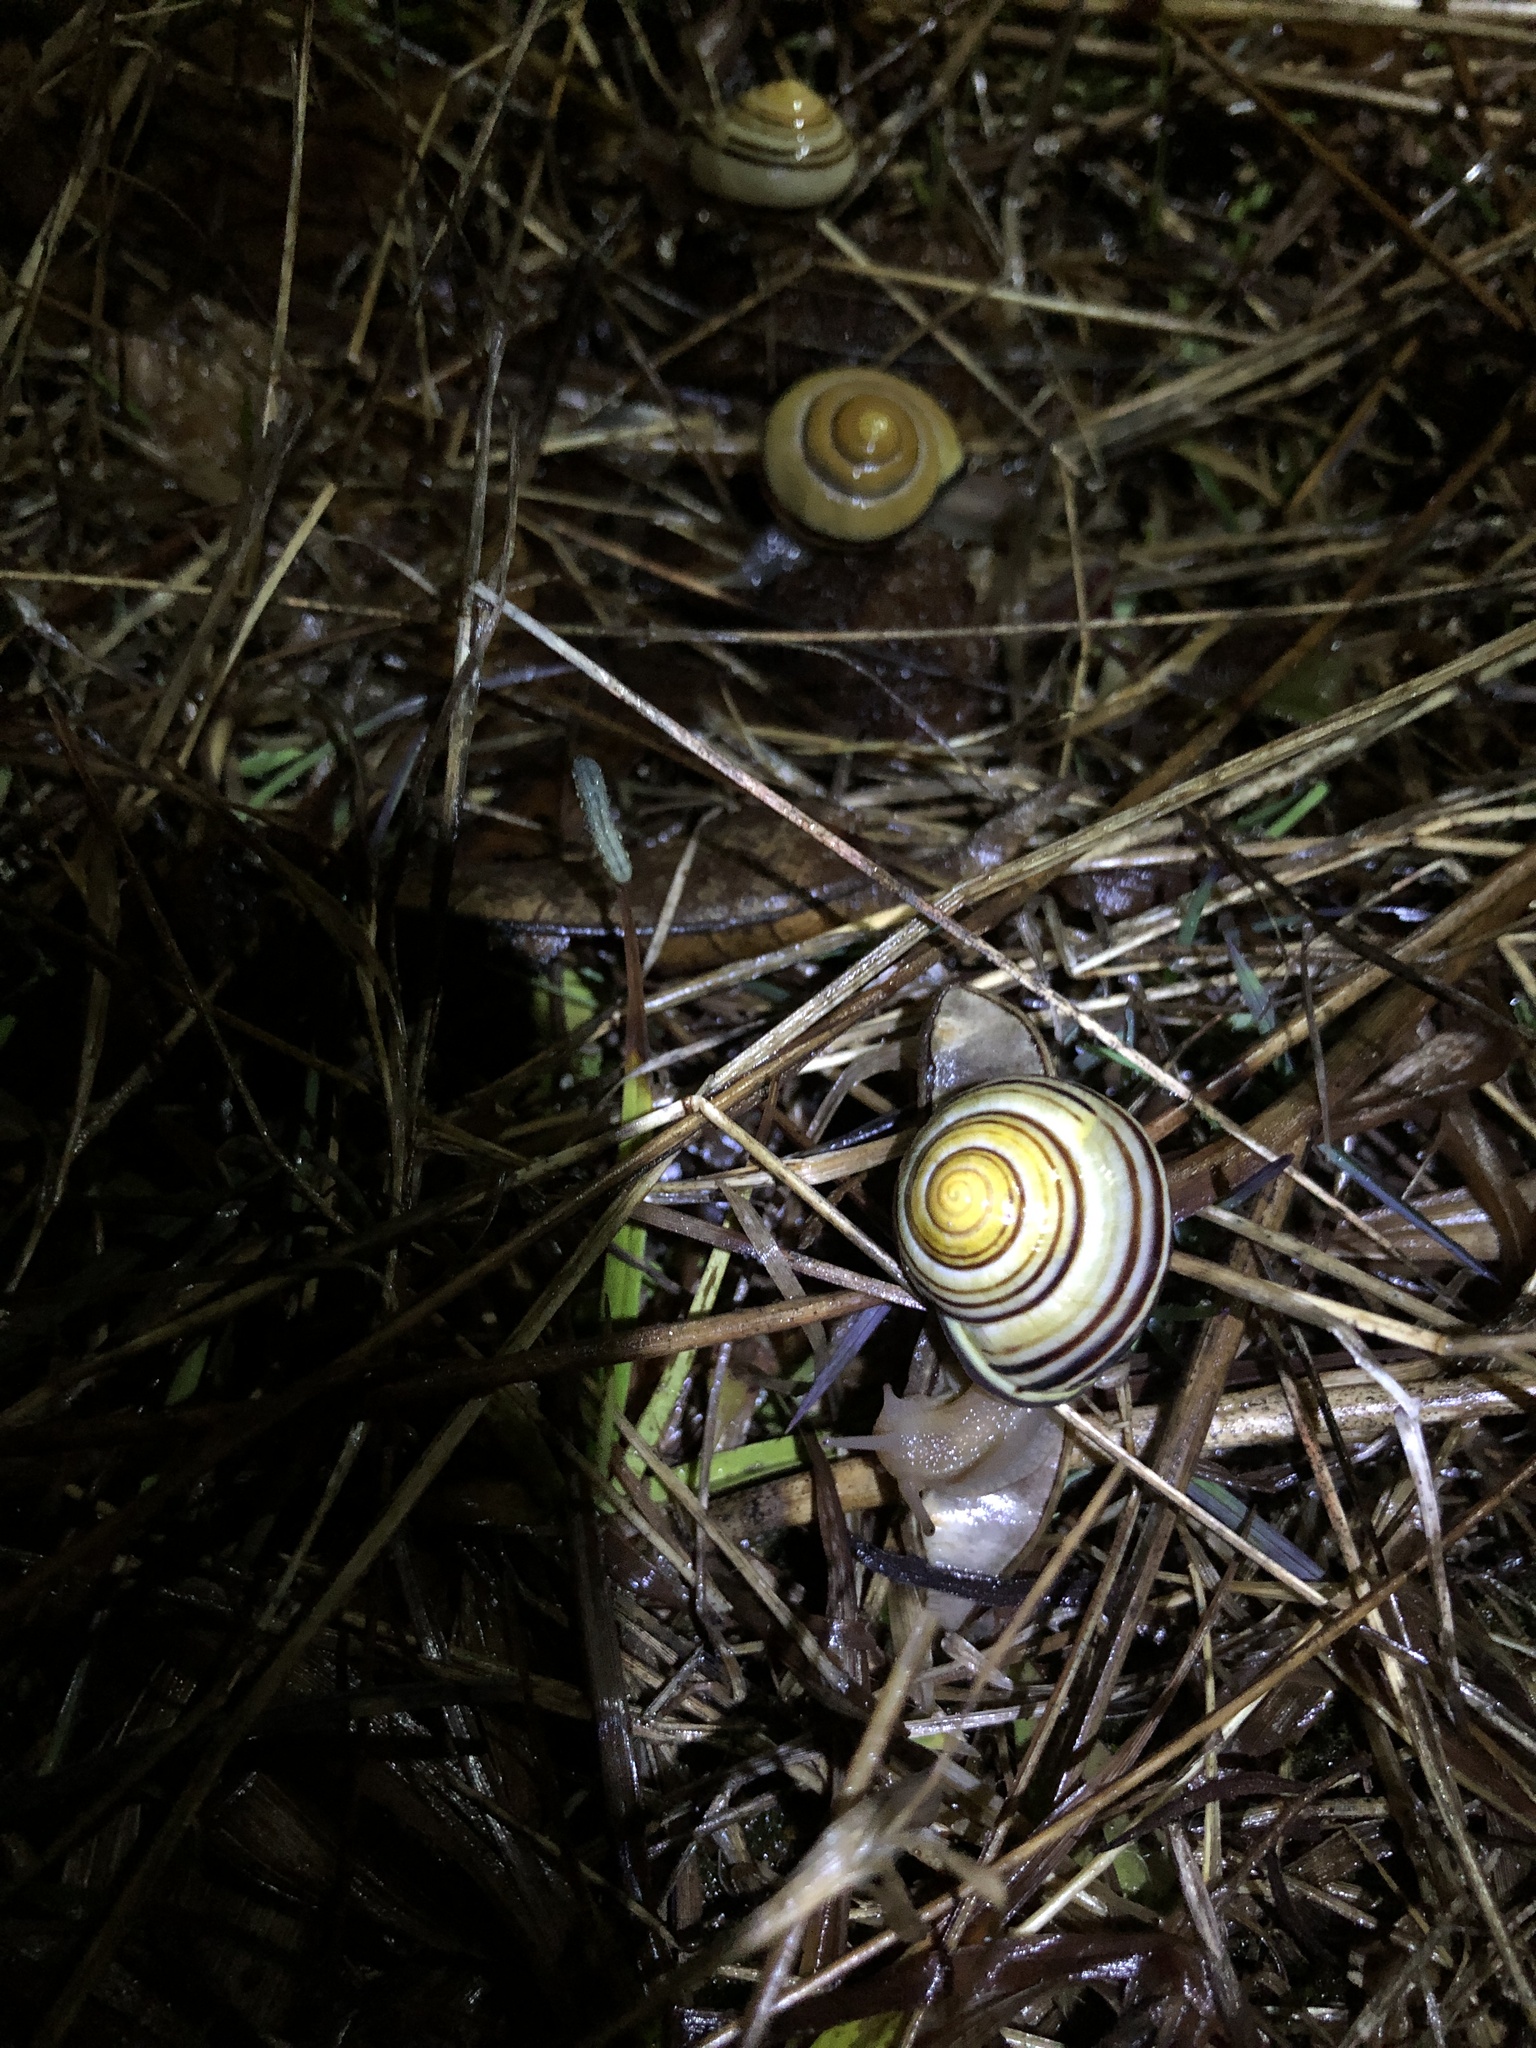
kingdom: Animalia
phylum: Mollusca
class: Gastropoda
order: Stylommatophora
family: Helicidae
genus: Cepaea
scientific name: Cepaea nemoralis
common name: Grovesnail
